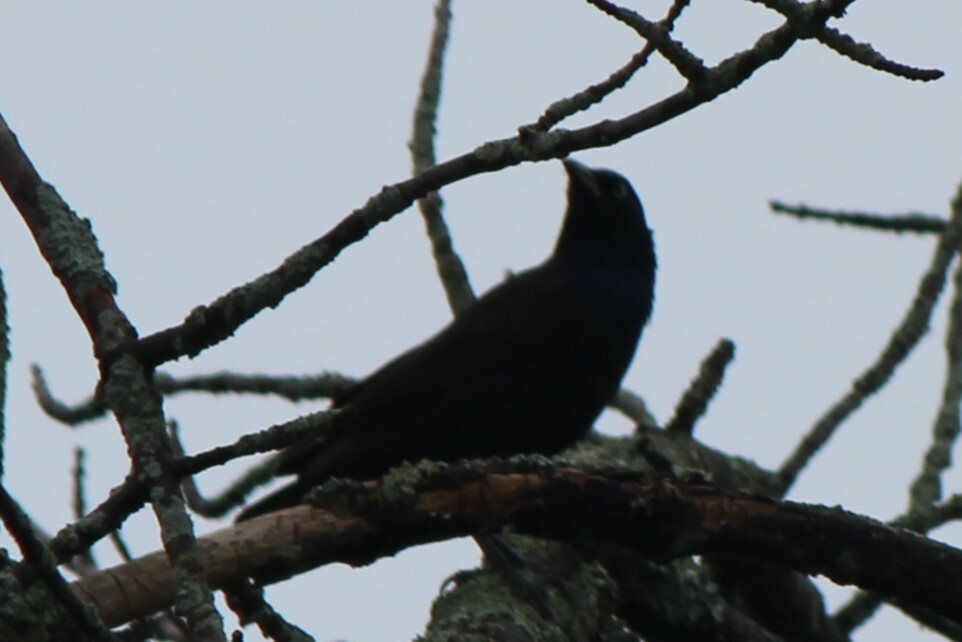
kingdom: Animalia
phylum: Chordata
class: Aves
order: Passeriformes
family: Icteridae
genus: Quiscalus
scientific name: Quiscalus quiscula
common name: Common grackle
